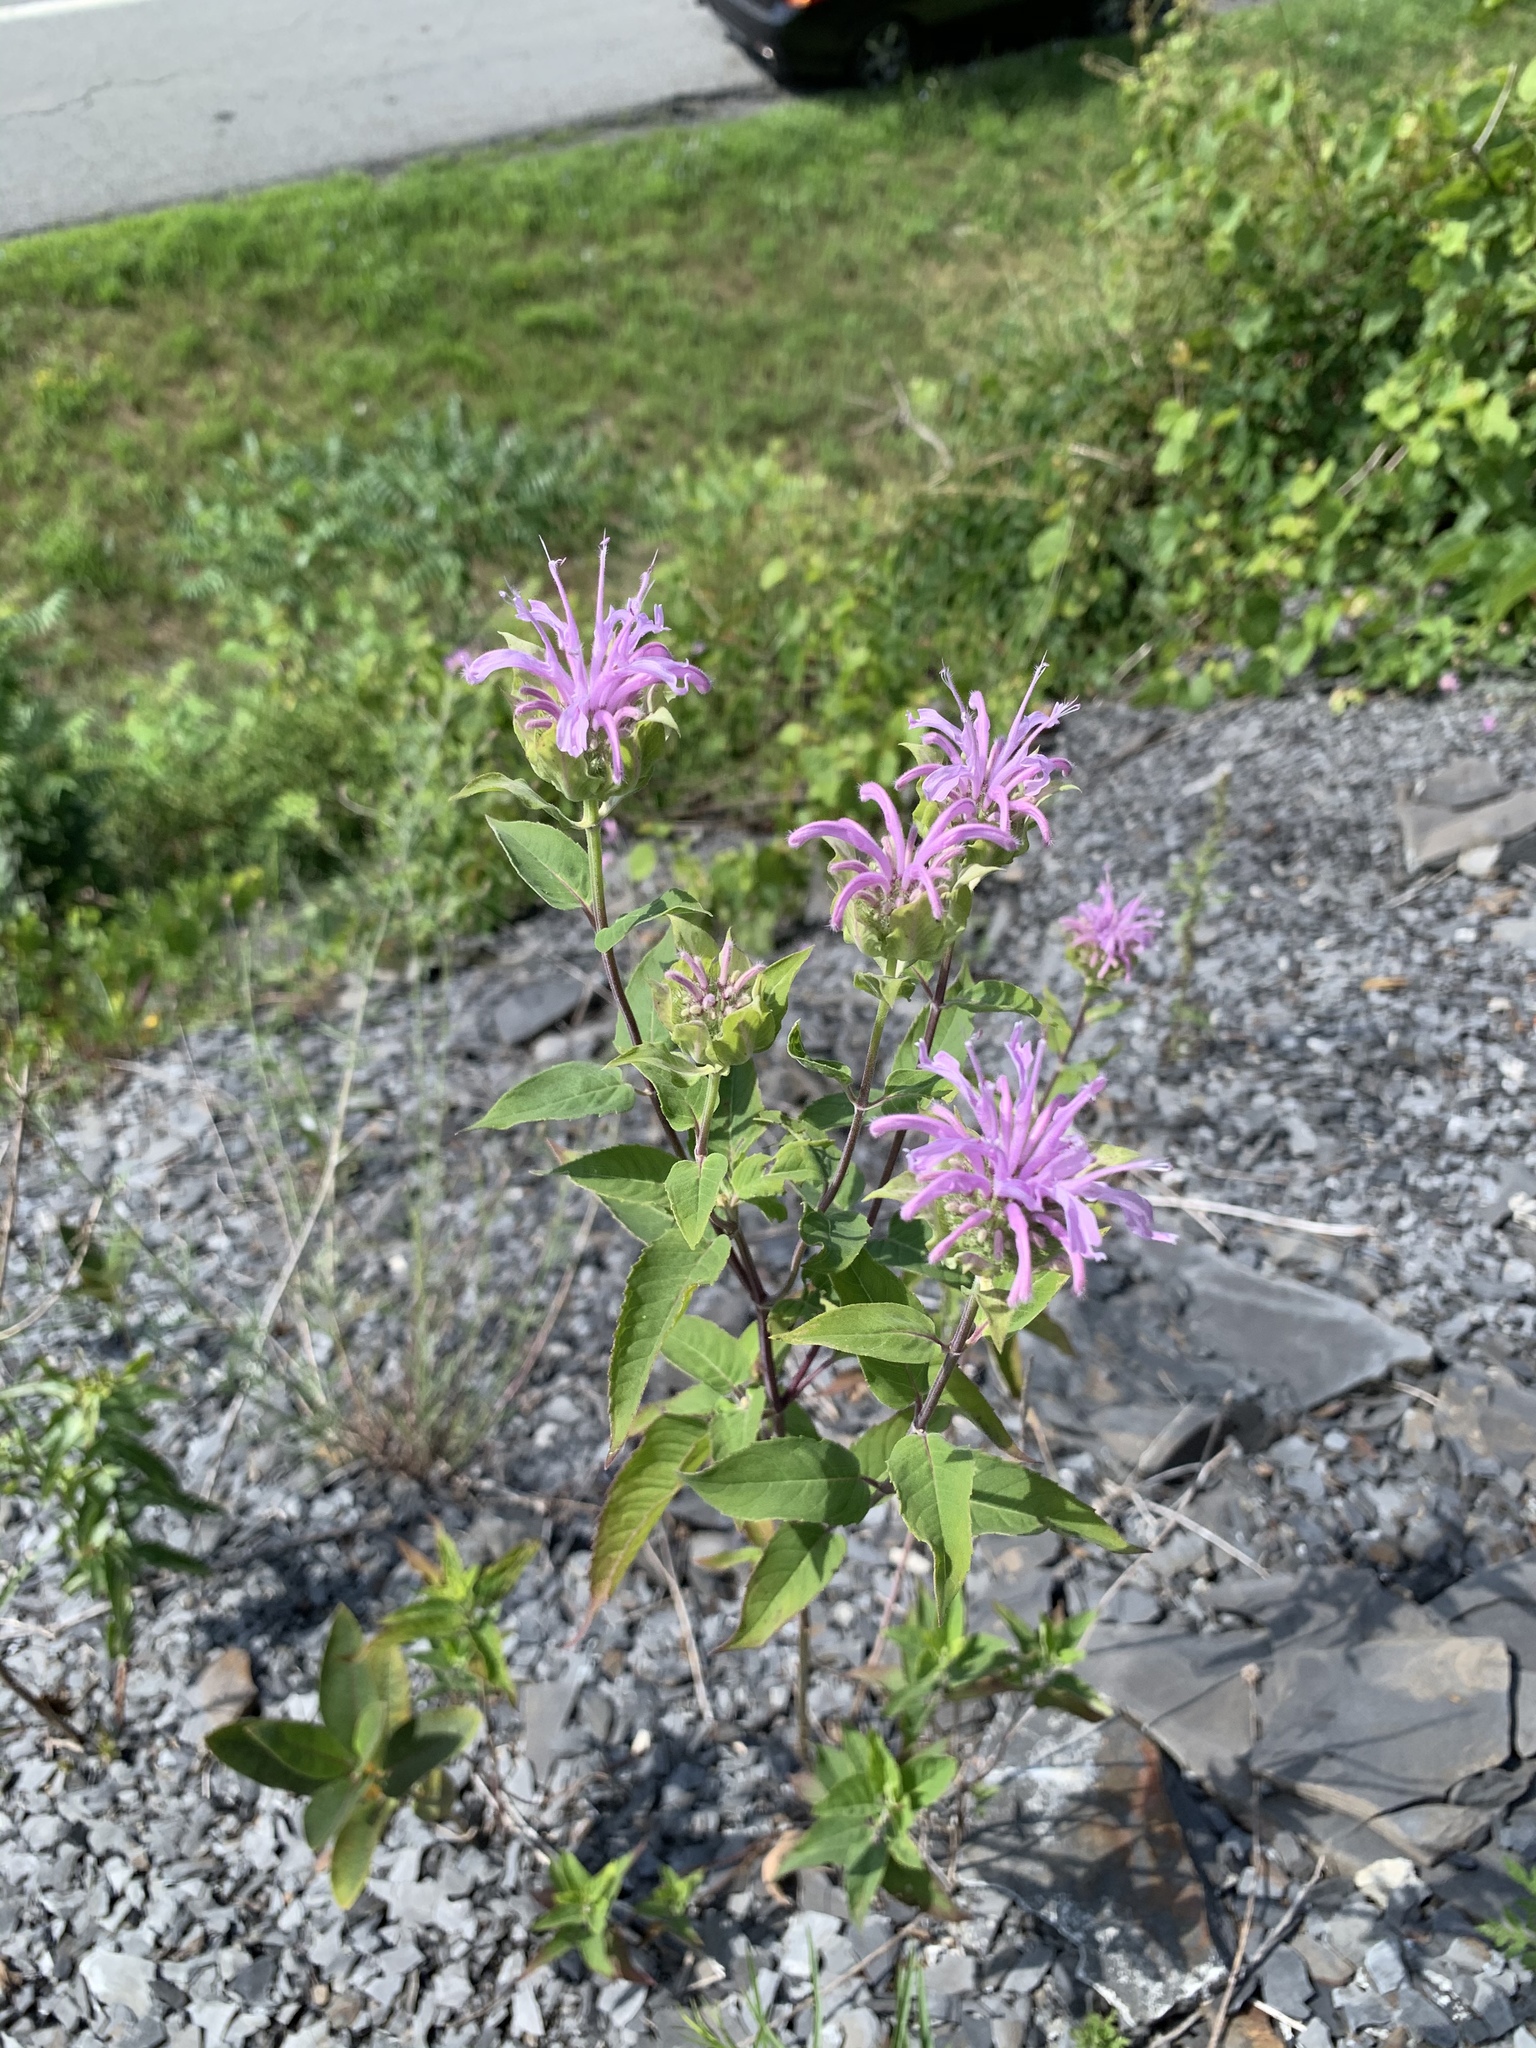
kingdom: Plantae
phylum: Tracheophyta
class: Magnoliopsida
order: Lamiales
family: Lamiaceae
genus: Monarda
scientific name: Monarda fistulosa
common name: Purple beebalm
